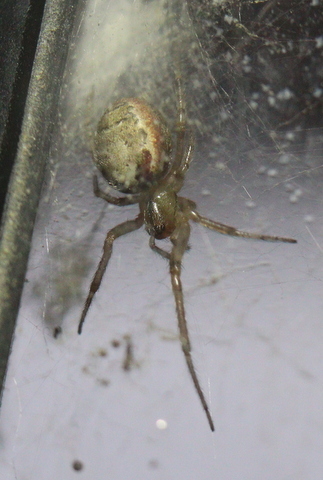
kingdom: Animalia
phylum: Arthropoda
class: Arachnida
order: Araneae
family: Araneidae
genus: Zygiella
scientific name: Zygiella atrica
